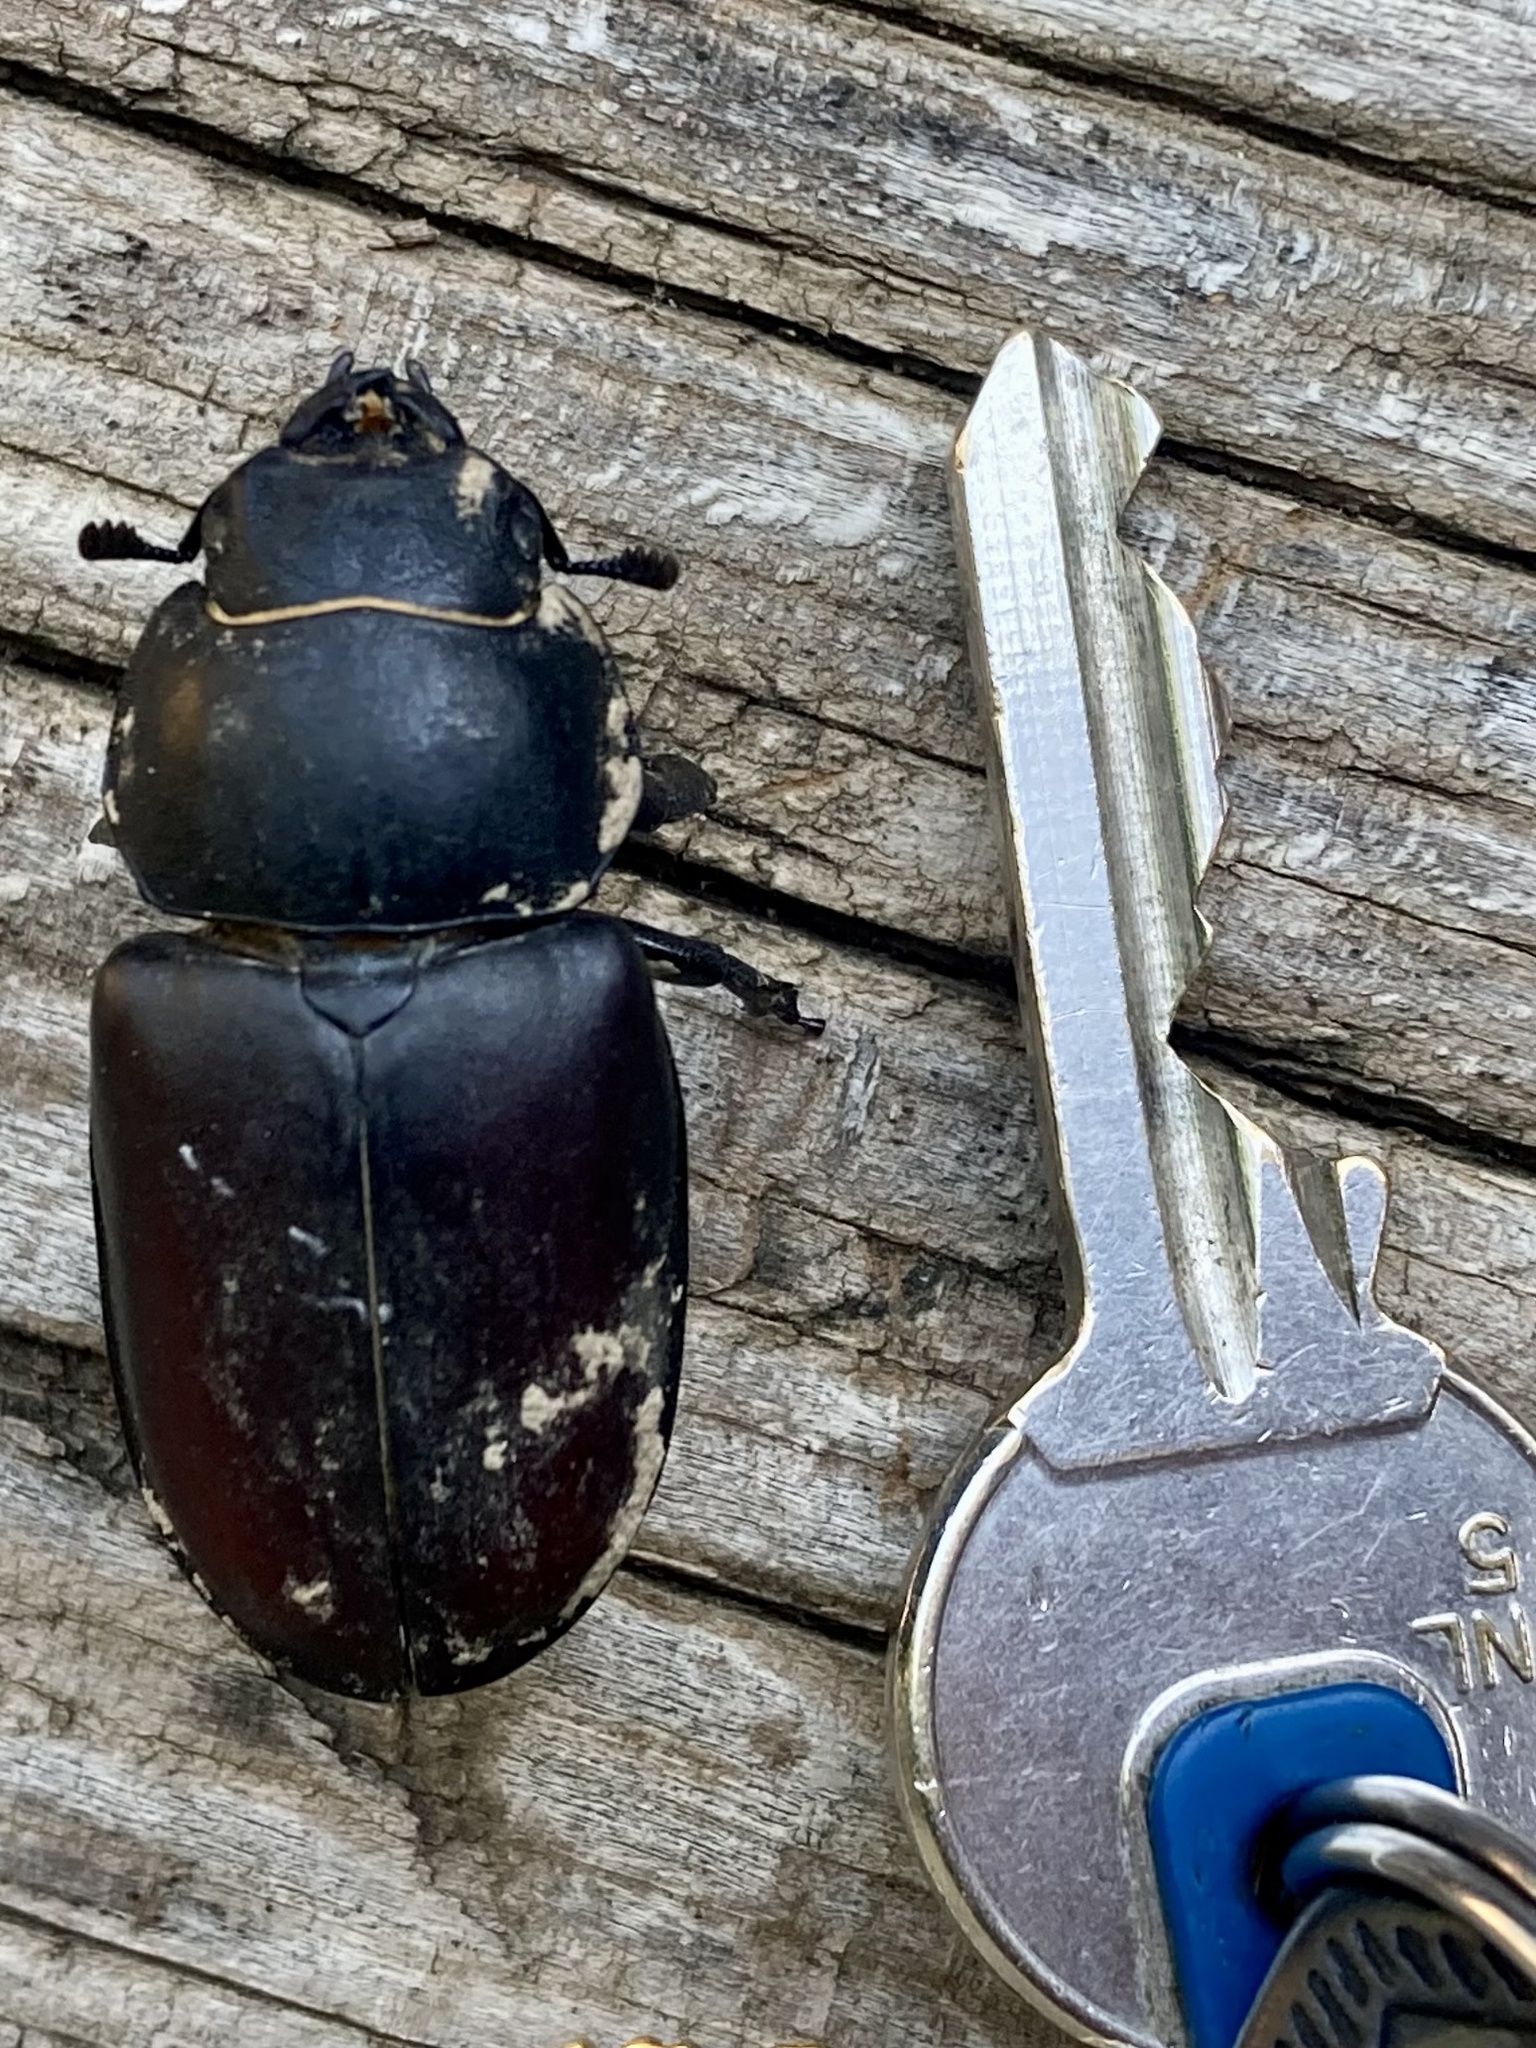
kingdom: Animalia
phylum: Arthropoda
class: Insecta
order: Coleoptera
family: Lucanidae
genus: Lucanus
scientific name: Lucanus cervus
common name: Stag beetle
